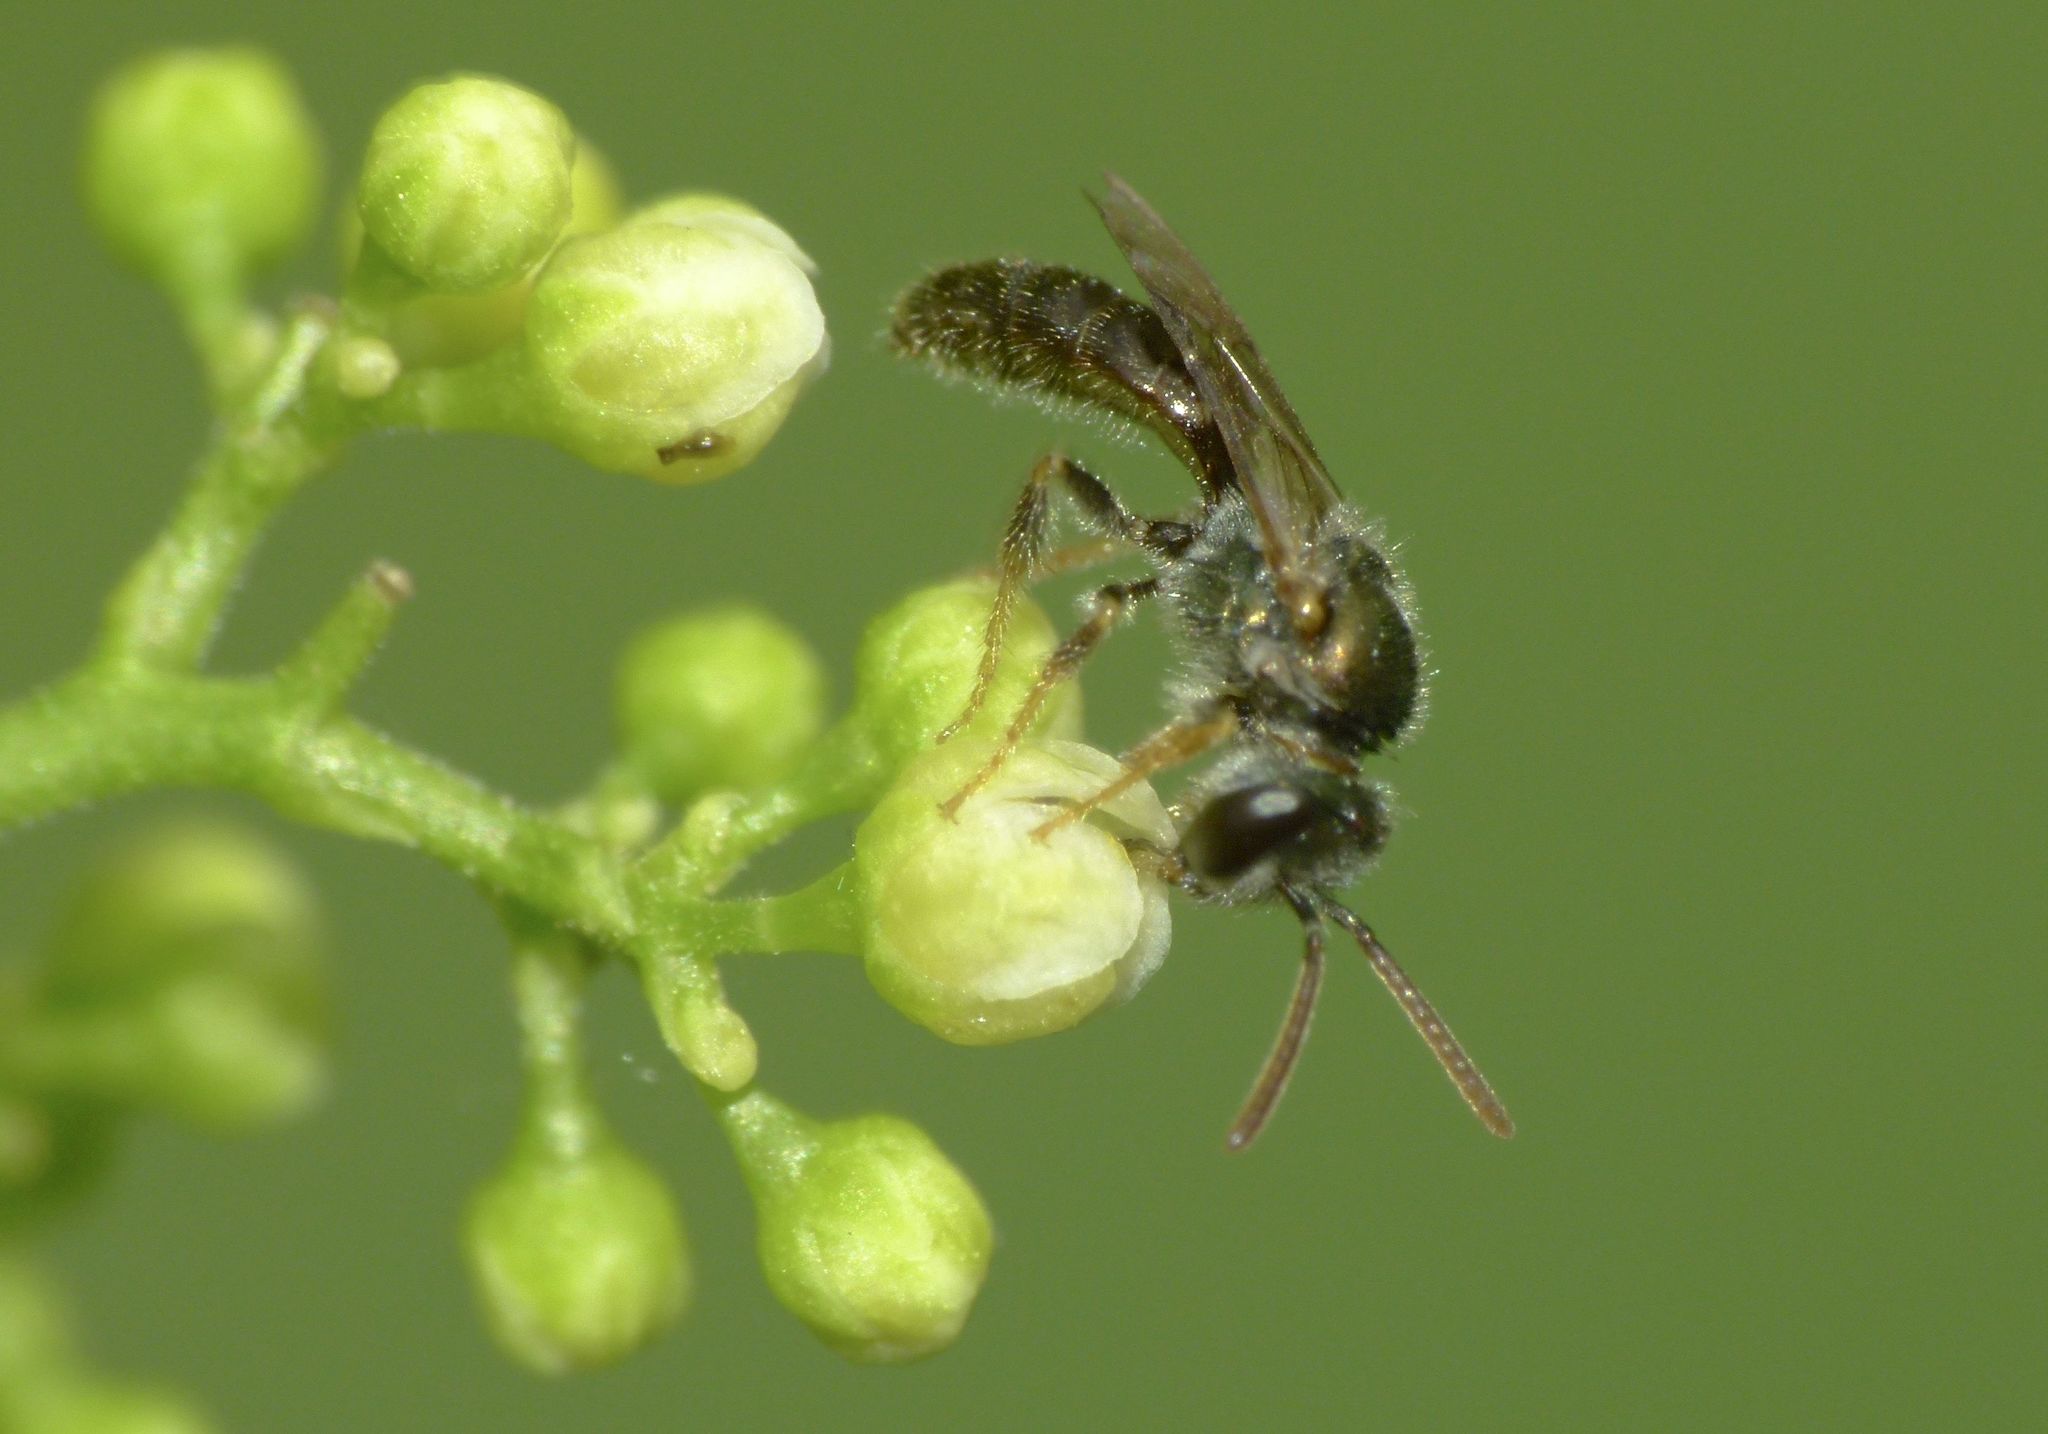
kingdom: Animalia
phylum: Arthropoda
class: Insecta
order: Hymenoptera
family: Halictidae
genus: Lasioglossum
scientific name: Lasioglossum urbanum
